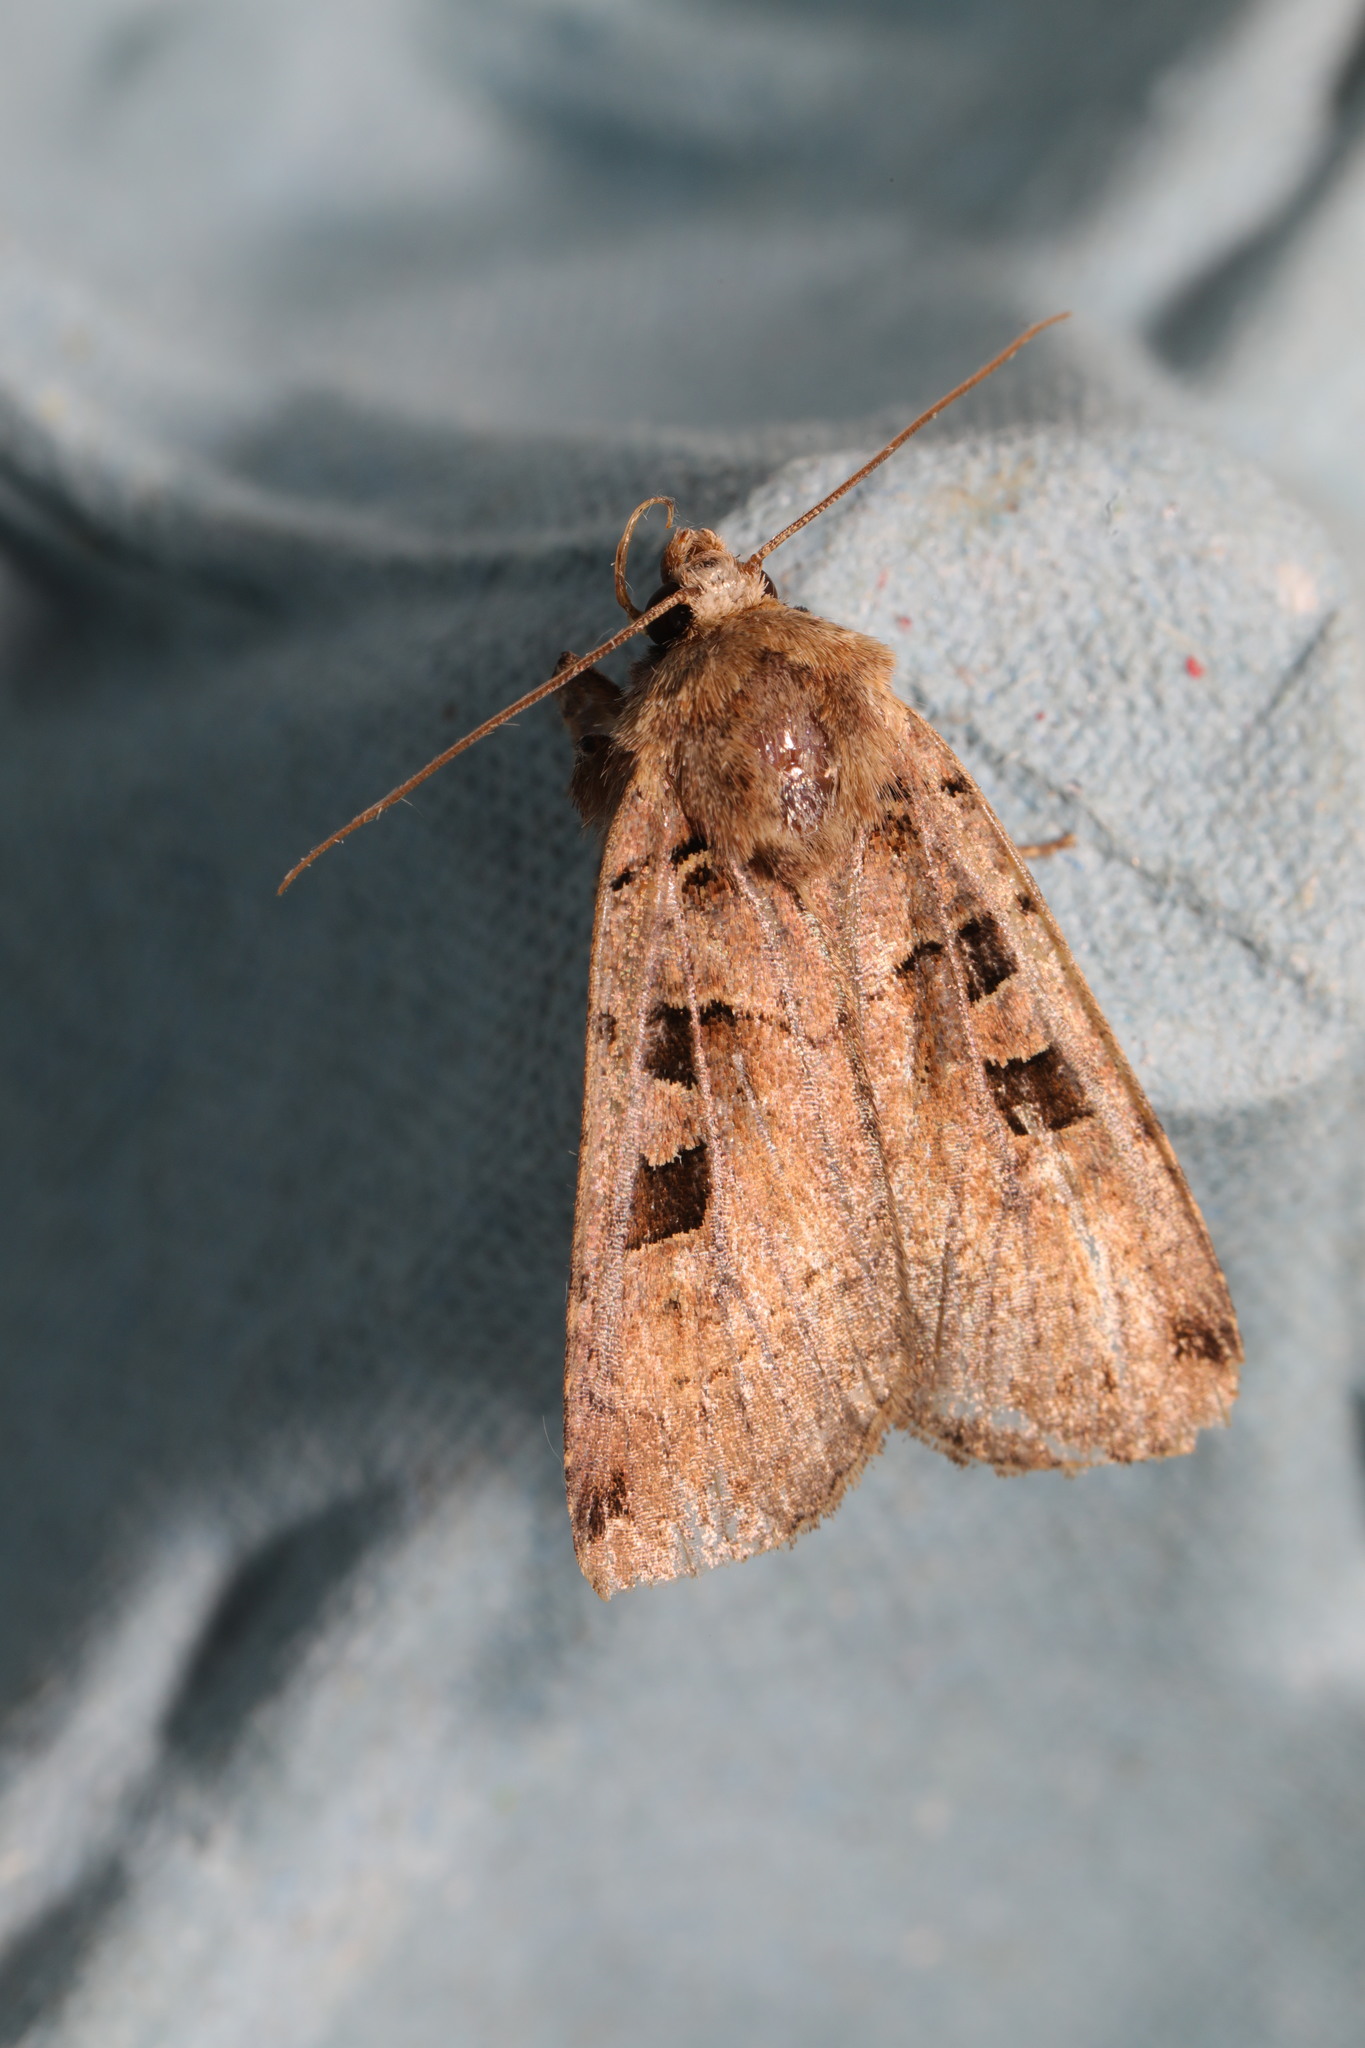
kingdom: Animalia
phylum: Arthropoda
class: Insecta
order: Lepidoptera
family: Noctuidae
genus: Xestia
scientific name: Xestia triangulum
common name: Double square-spot
